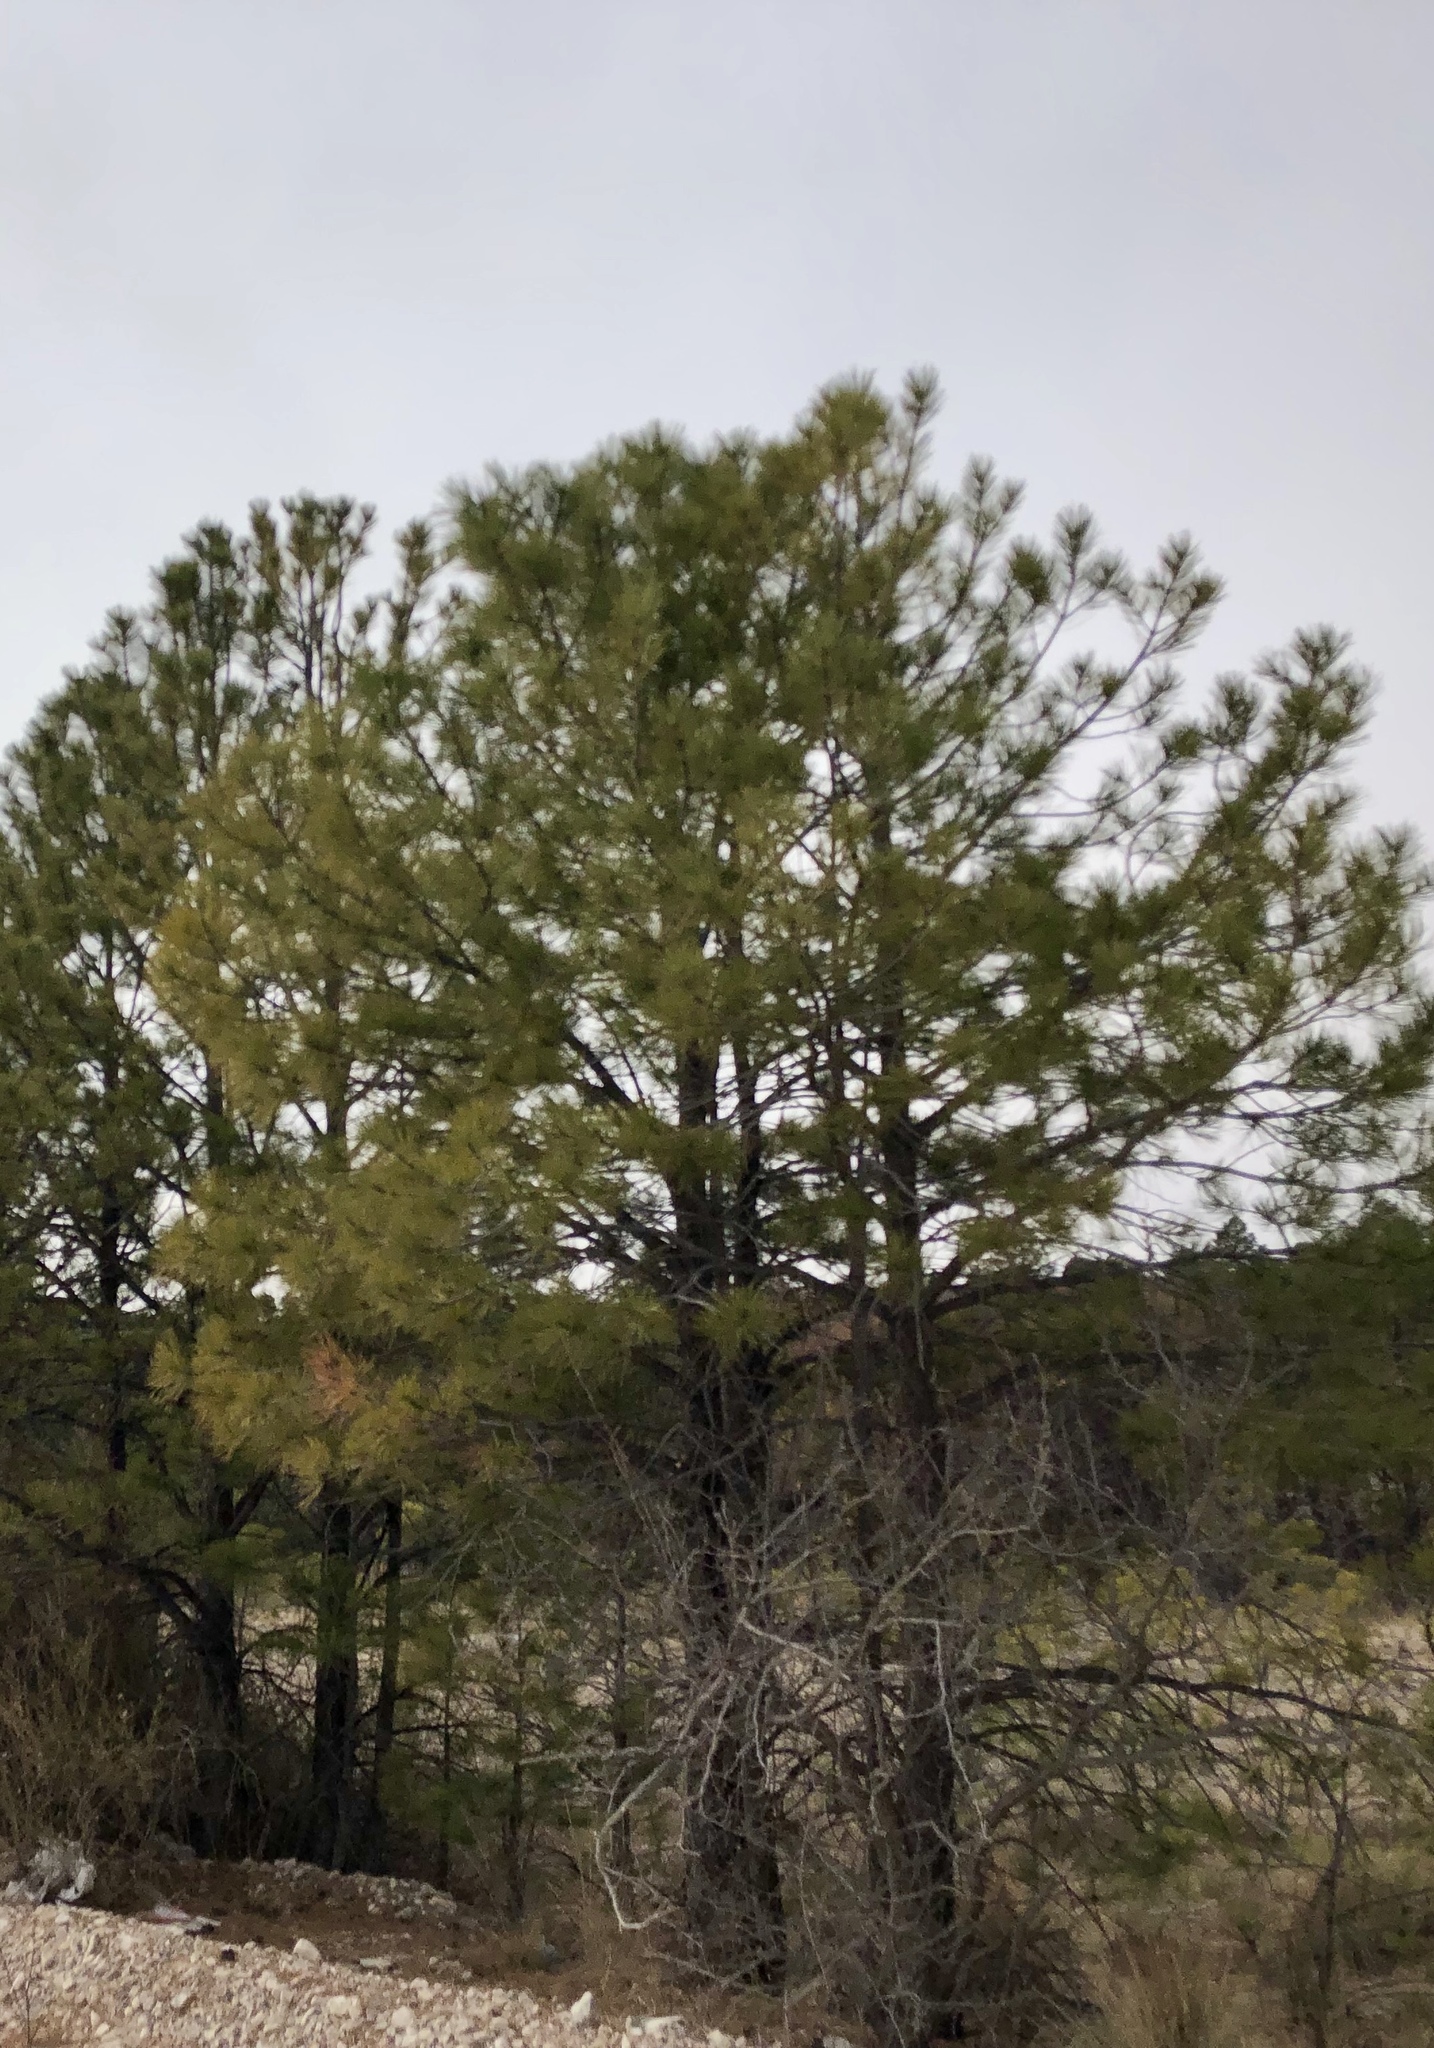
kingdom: Plantae
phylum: Tracheophyta
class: Pinopsida
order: Pinales
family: Pinaceae
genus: Pinus
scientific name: Pinus ponderosa
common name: Western yellow-pine
